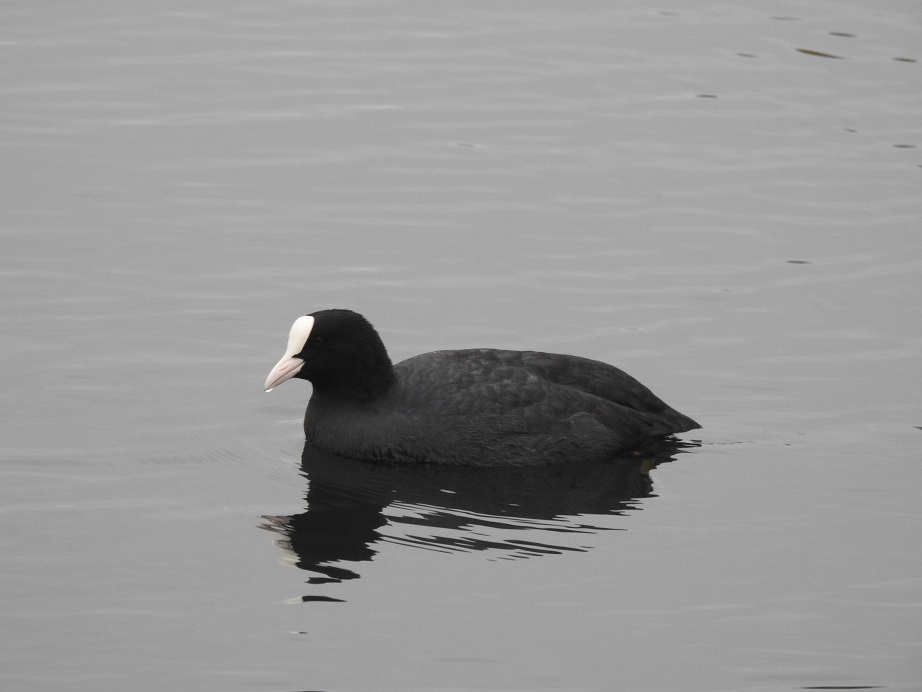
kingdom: Animalia
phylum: Chordata
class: Aves
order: Gruiformes
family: Rallidae
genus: Fulica
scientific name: Fulica atra
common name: Eurasian coot
